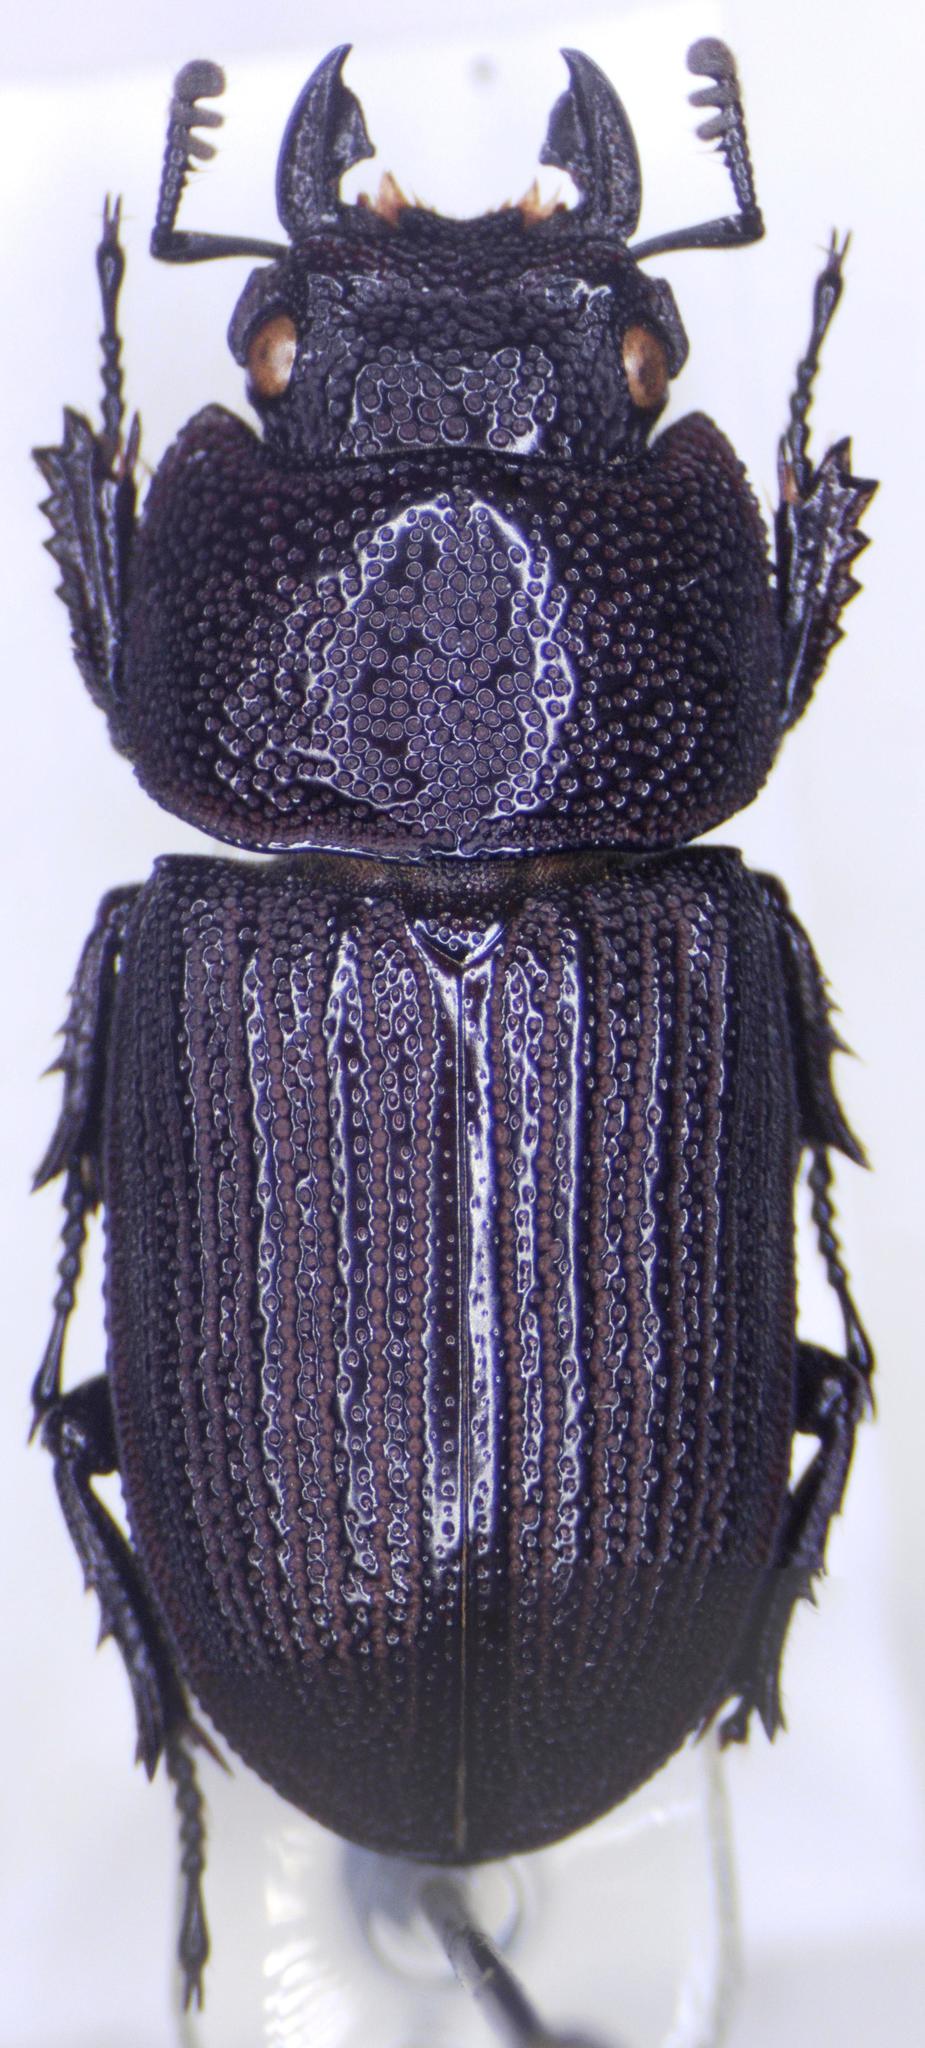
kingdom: Animalia
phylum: Arthropoda
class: Insecta
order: Coleoptera
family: Lucanidae
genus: Aegus
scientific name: Aegus subnitidus
